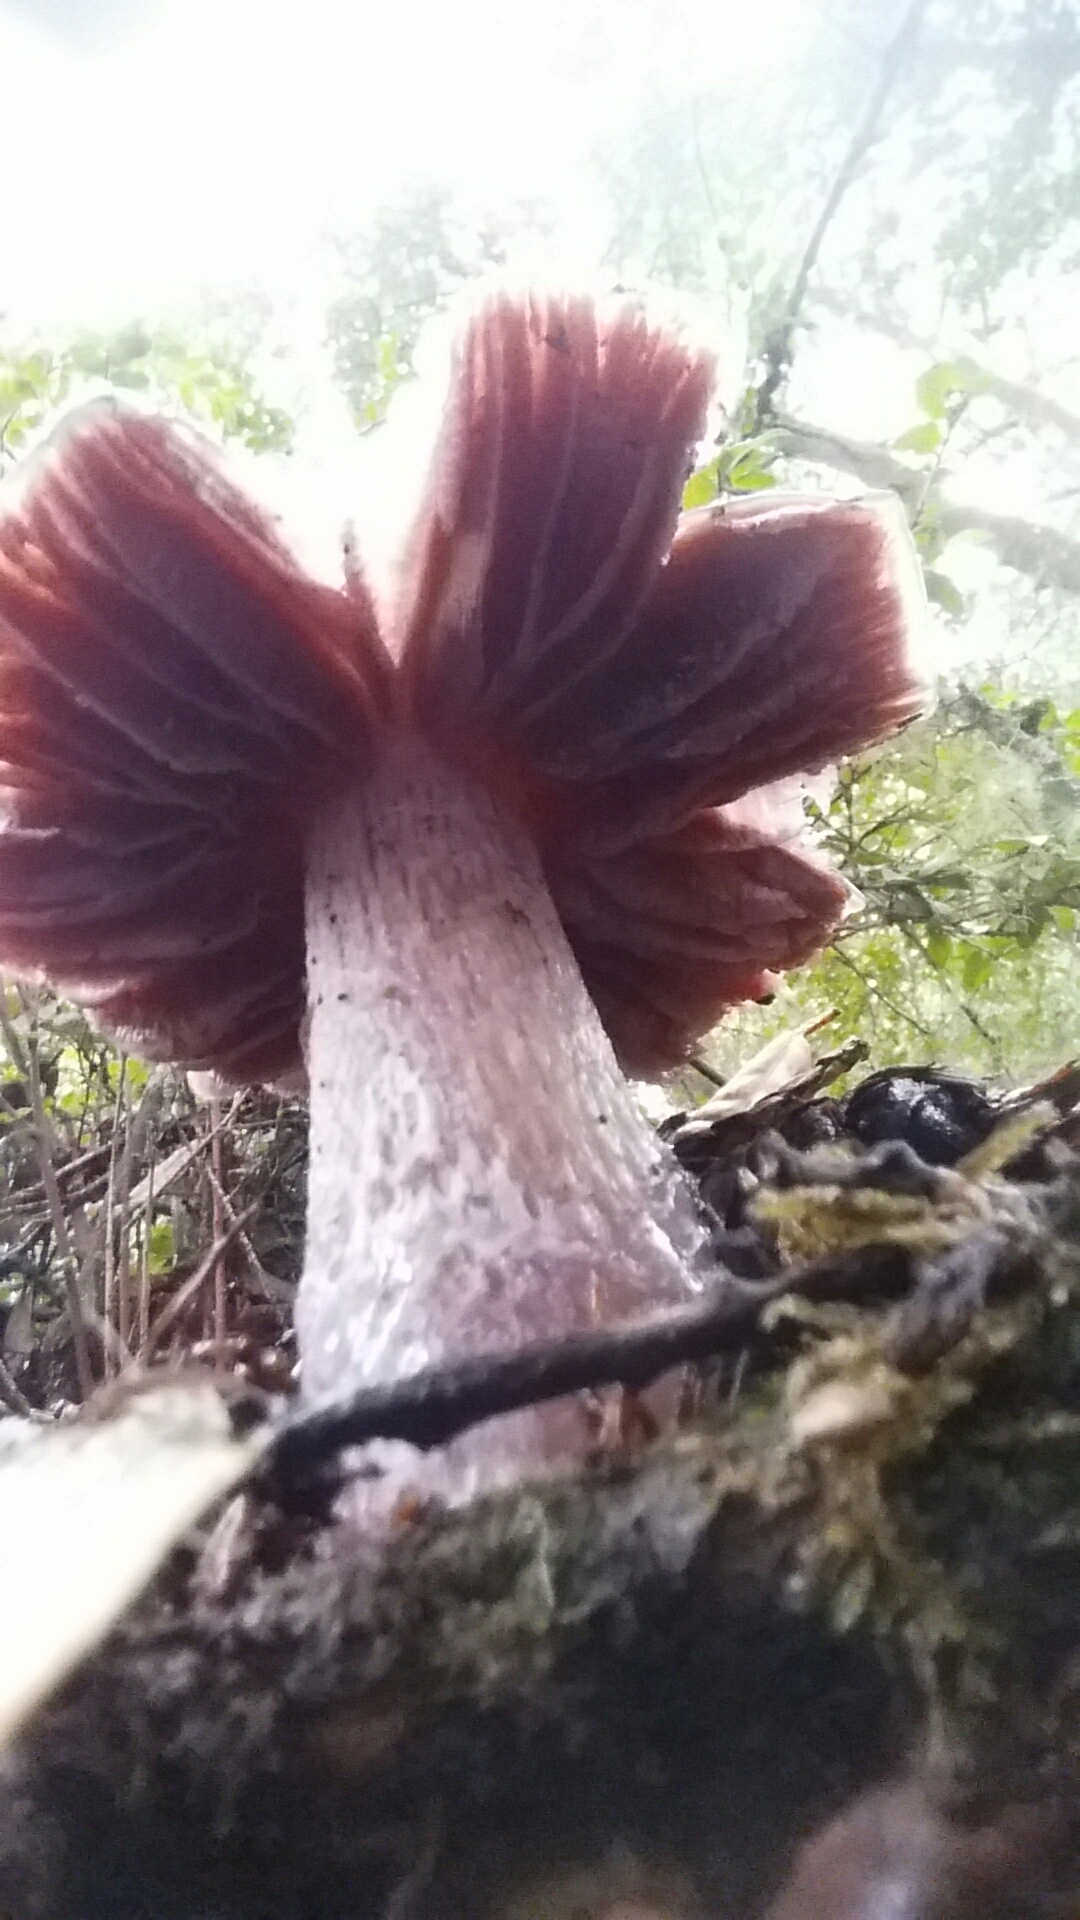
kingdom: Fungi
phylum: Basidiomycota
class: Agaricomycetes
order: Agaricales
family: Cortinariaceae
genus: Cortinarius
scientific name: Cortinarius cylindripes
